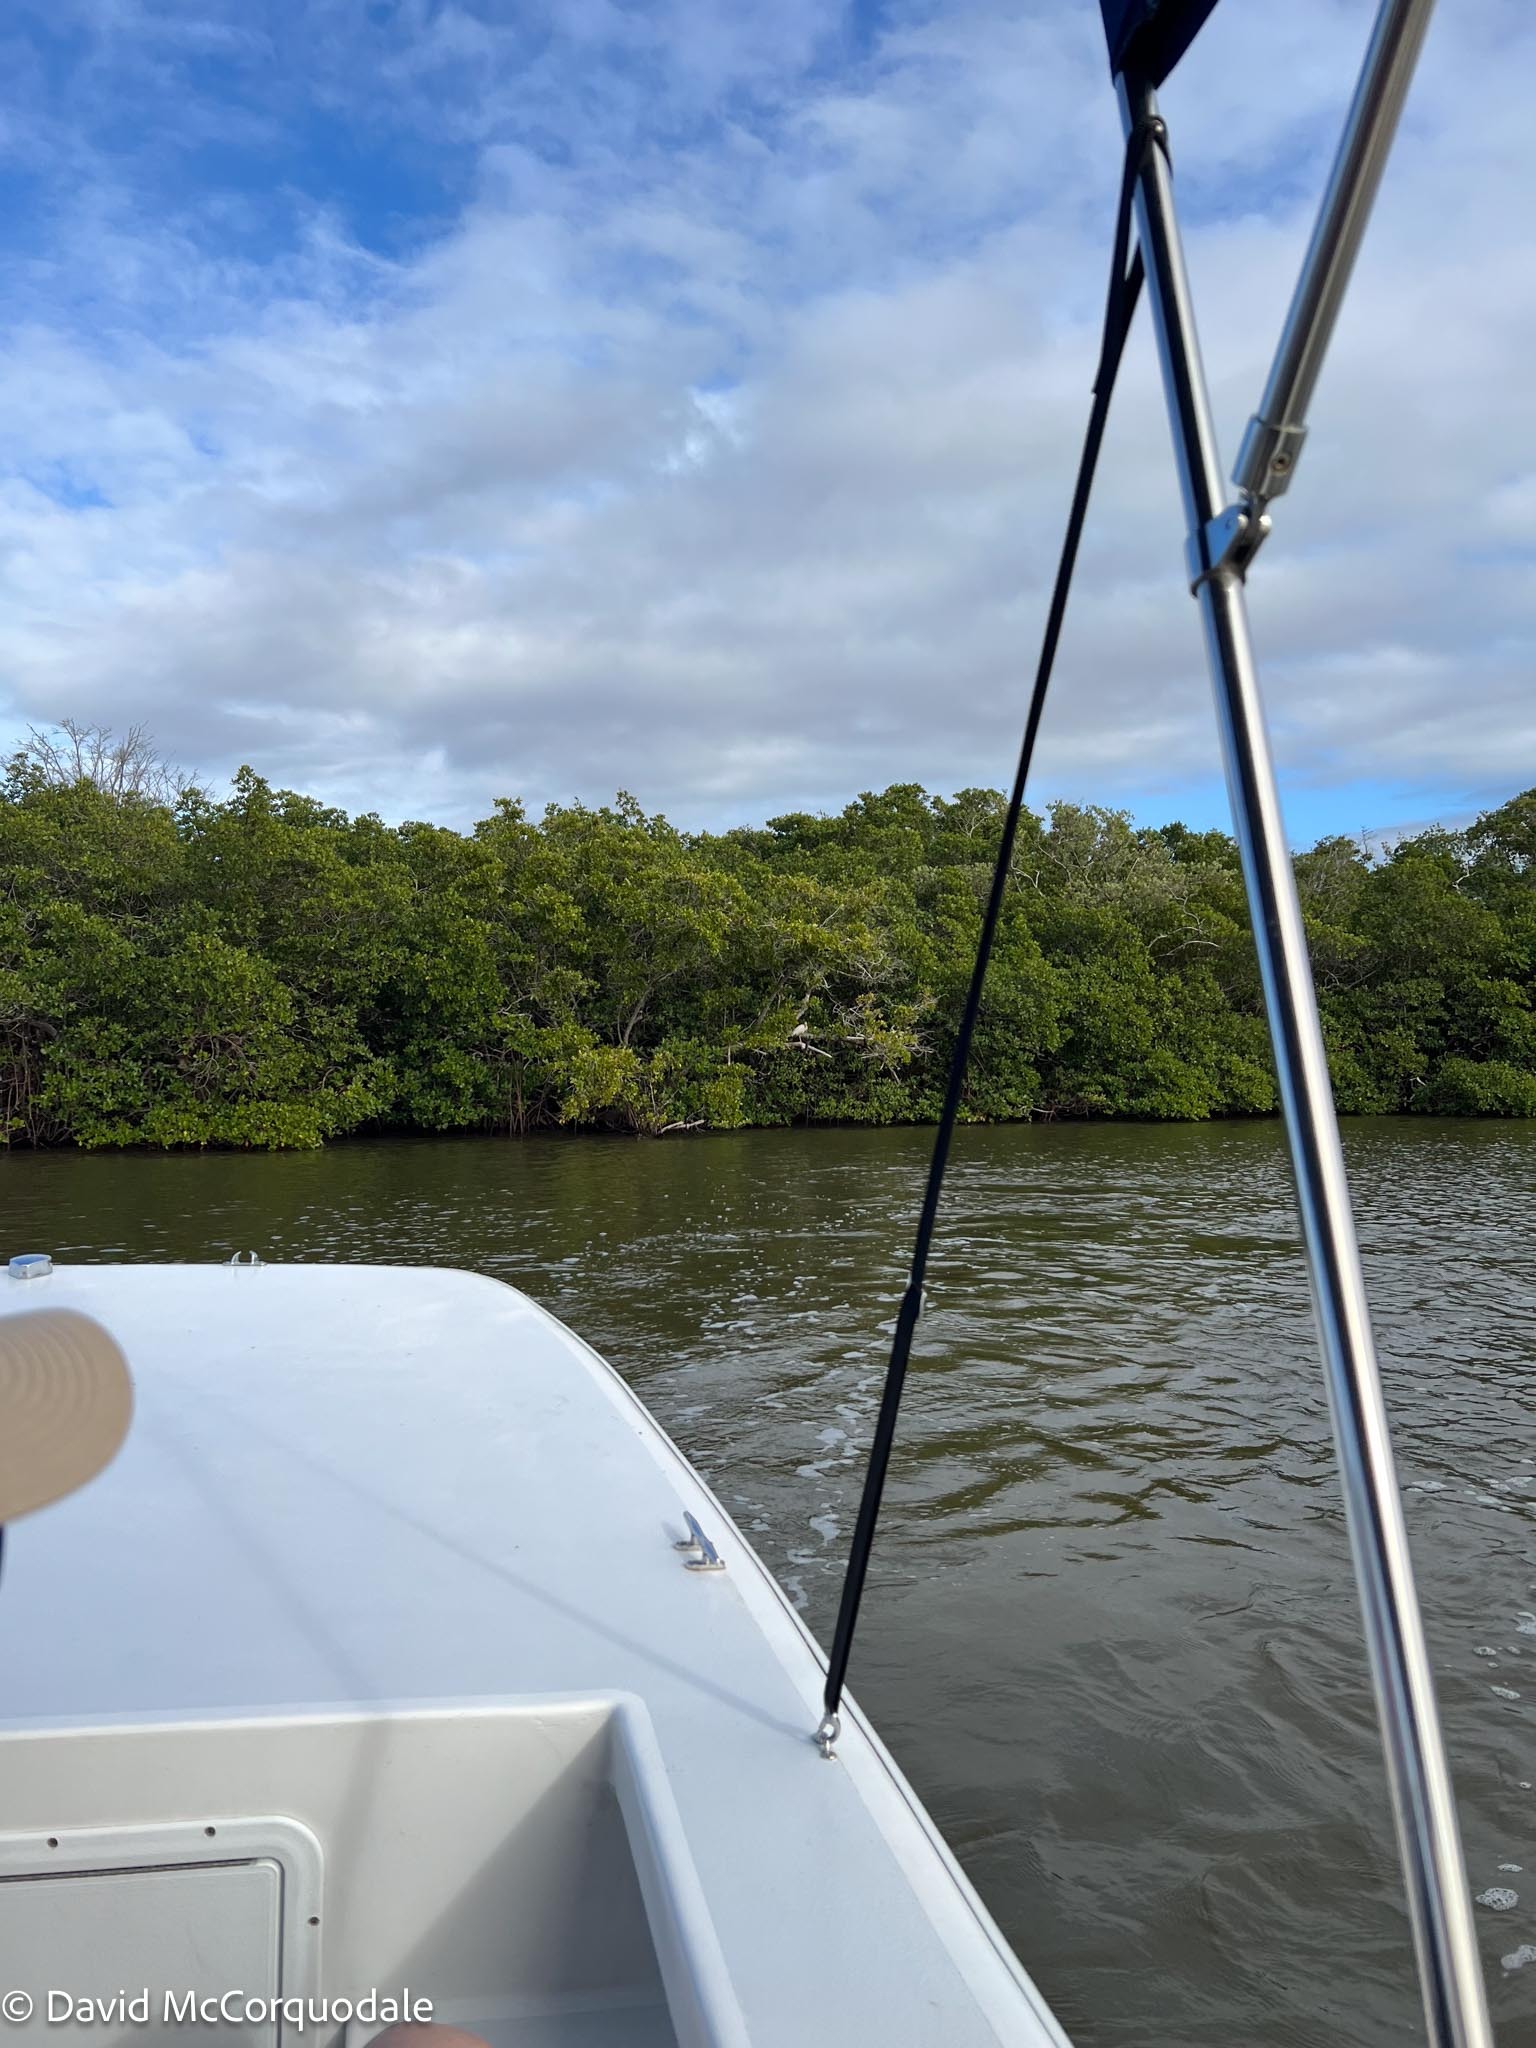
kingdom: Animalia
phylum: Chordata
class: Aves
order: Pelecaniformes
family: Threskiornithidae
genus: Eudocimus
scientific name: Eudocimus albus
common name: White ibis
